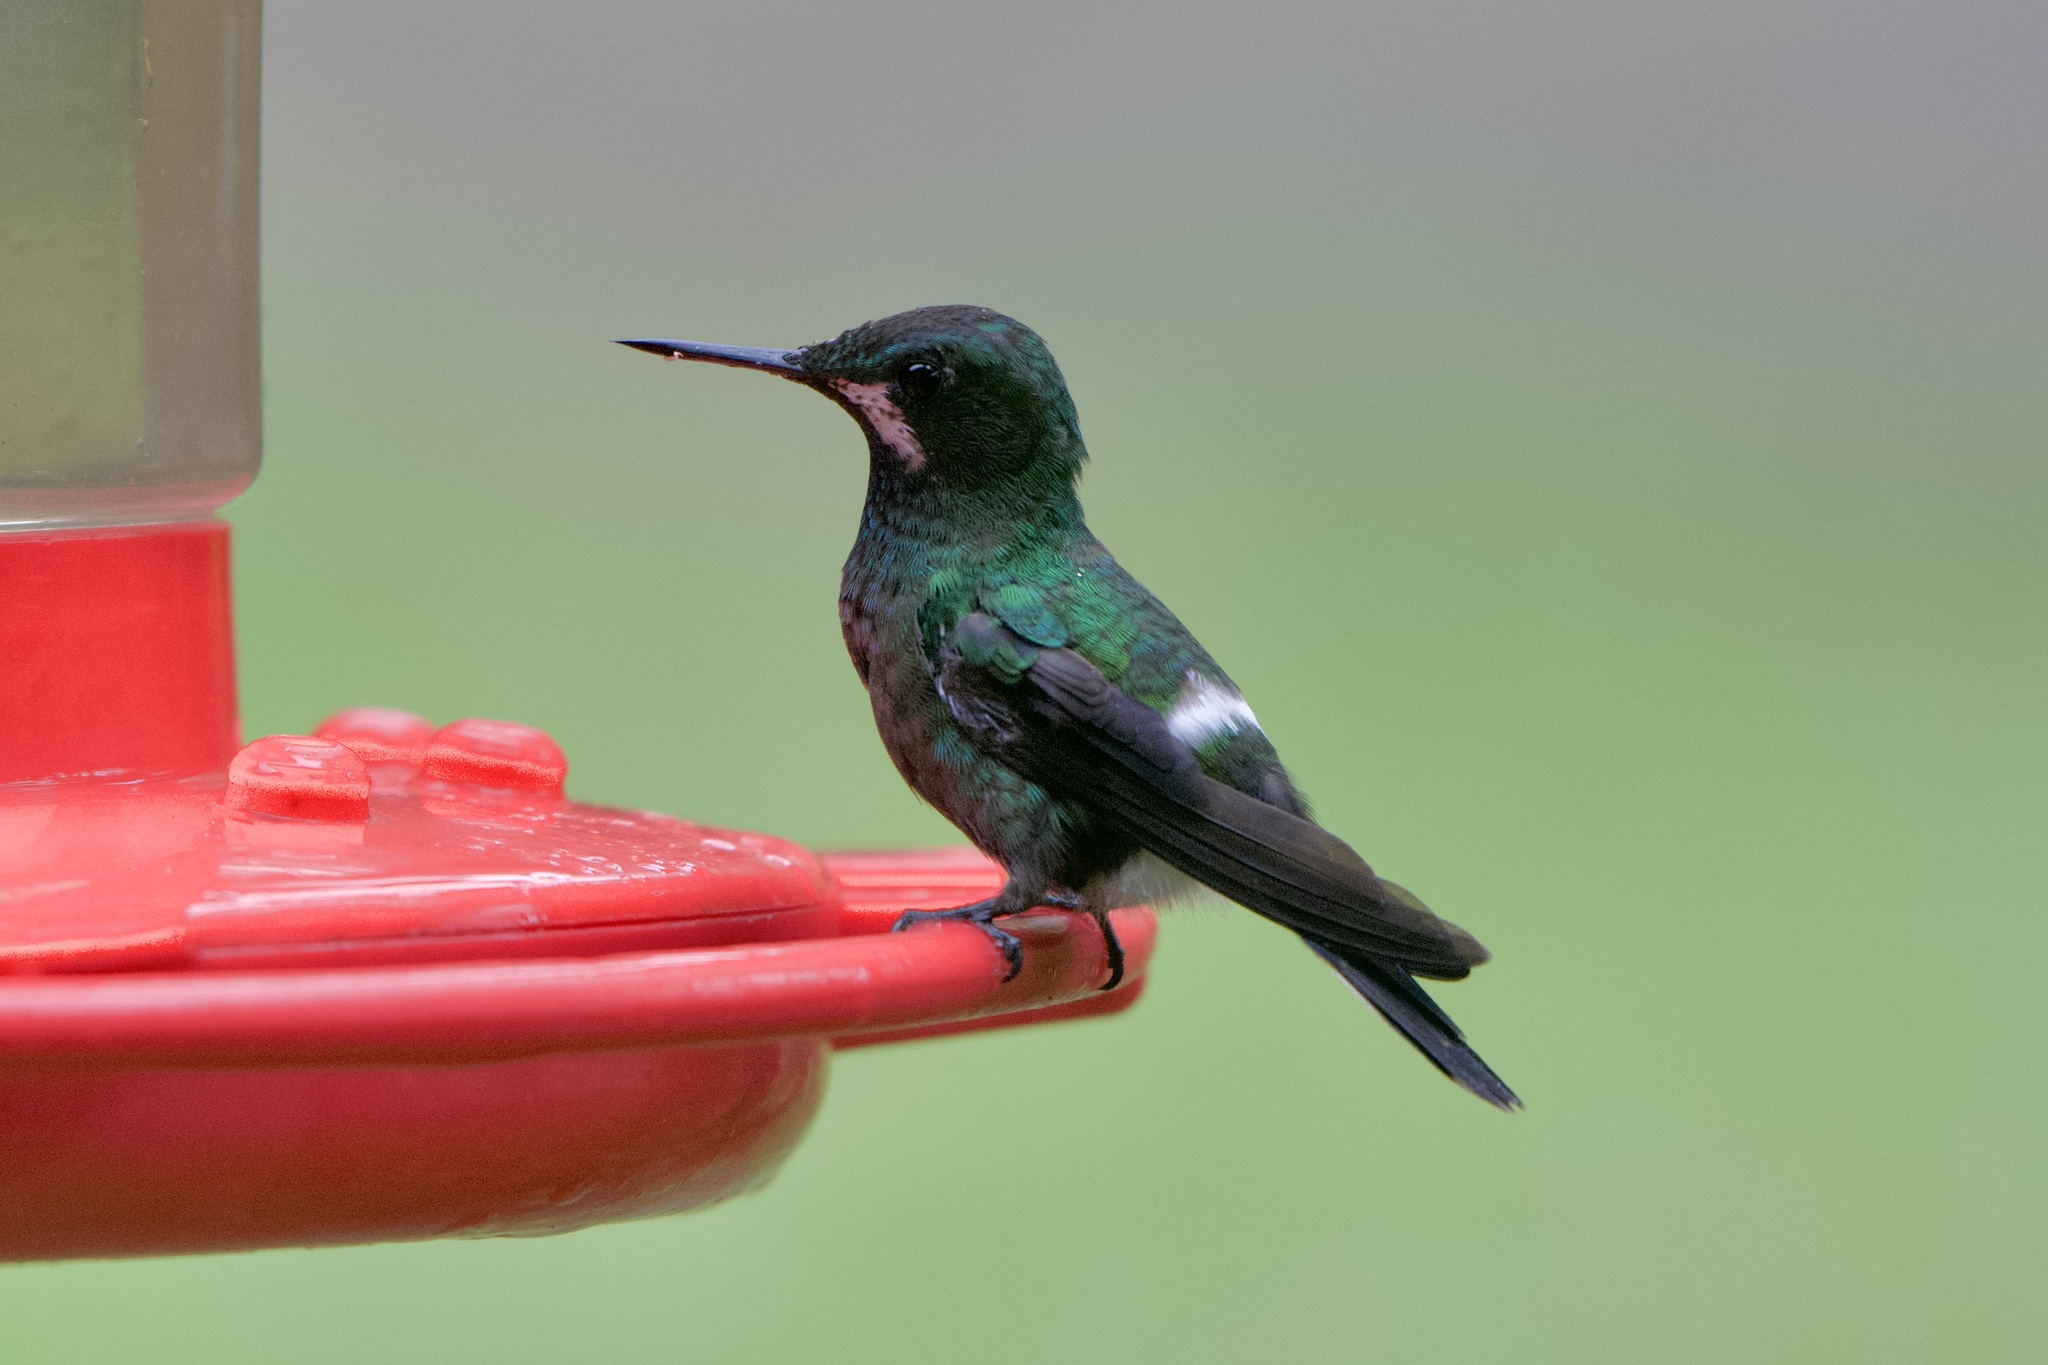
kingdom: Animalia
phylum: Chordata
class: Aves
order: Apodiformes
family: Trochilidae
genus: Discosura
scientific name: Discosura conversii
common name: Green thorntail
